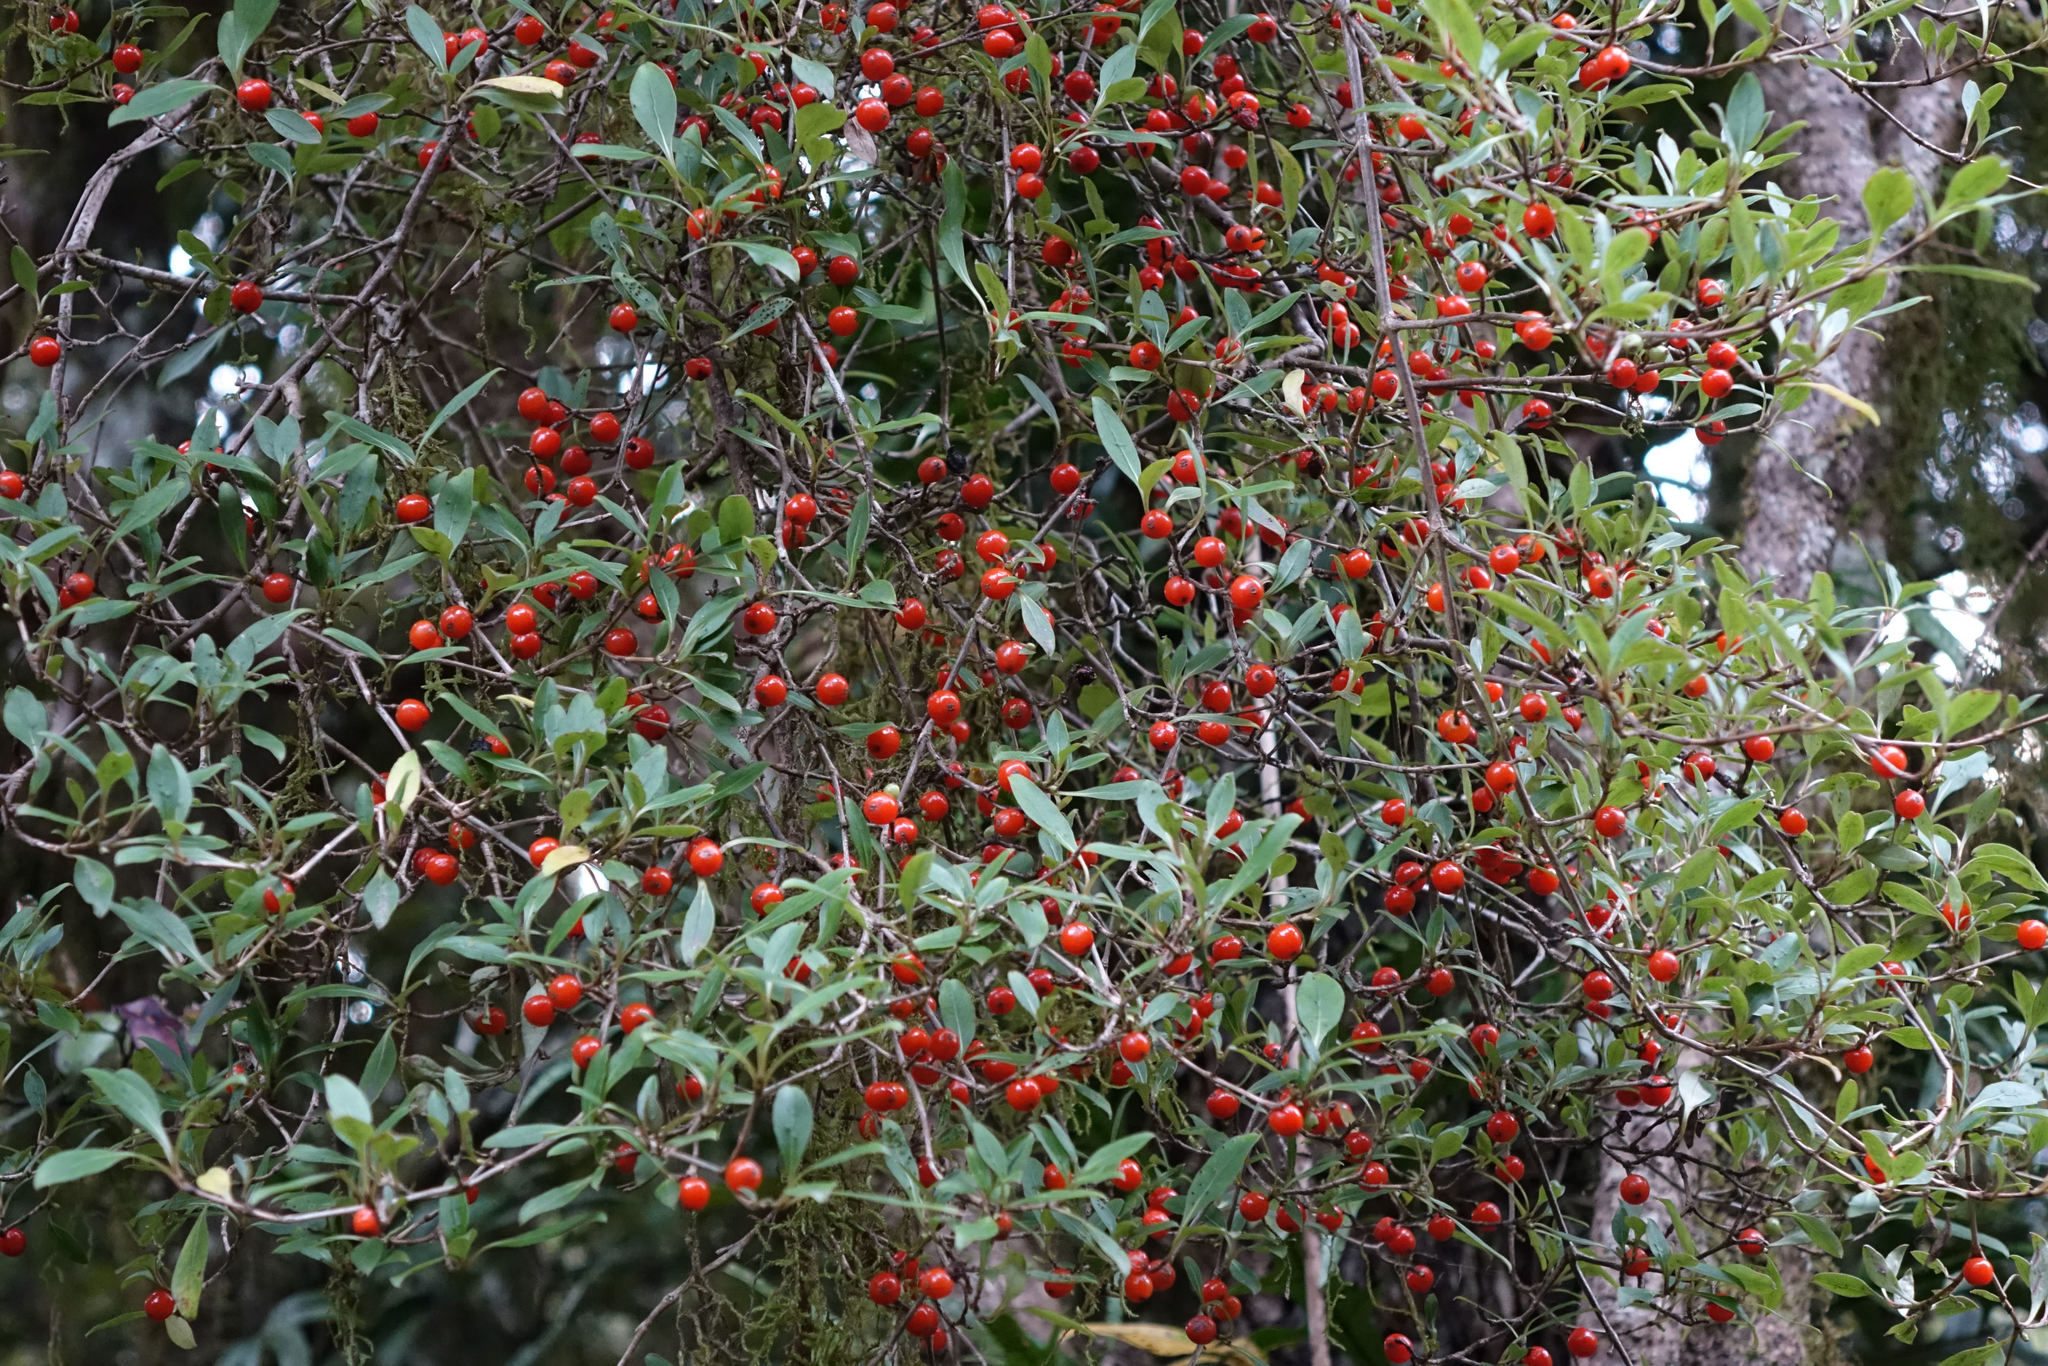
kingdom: Plantae
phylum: Tracheophyta
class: Magnoliopsida
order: Gentianales
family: Rubiaceae
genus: Coprosma
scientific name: Coprosma foetidissima
